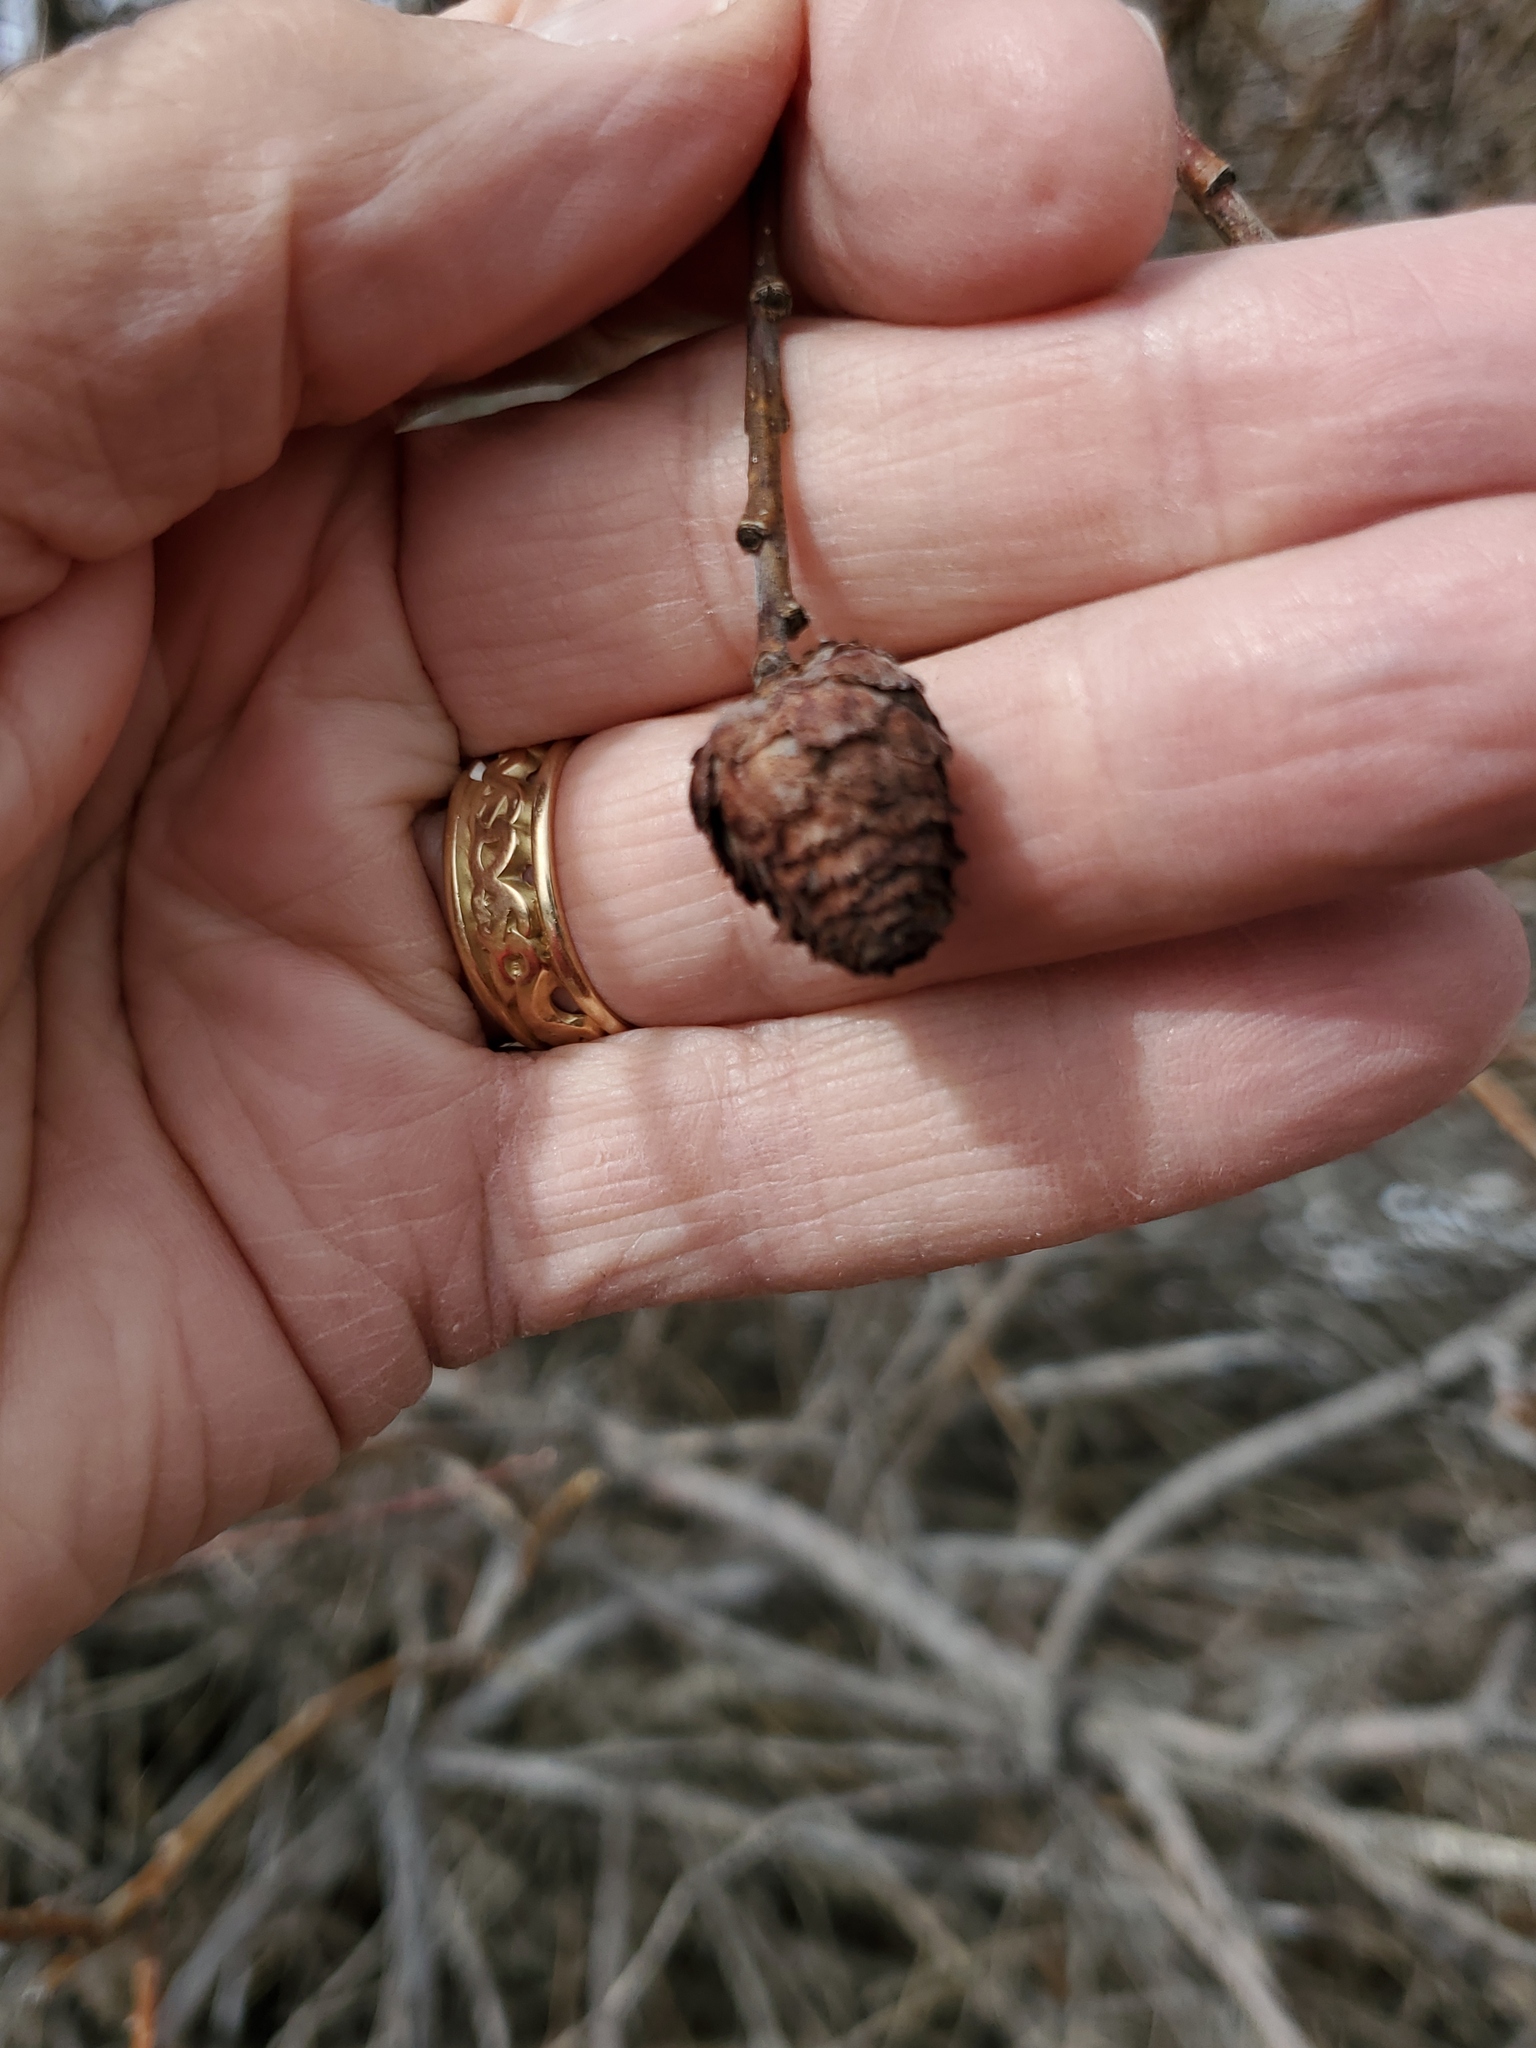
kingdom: Animalia
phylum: Arthropoda
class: Insecta
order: Diptera
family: Cecidomyiidae
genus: Rabdophaga
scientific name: Rabdophaga strobiloides
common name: Willow pinecone gall midge
